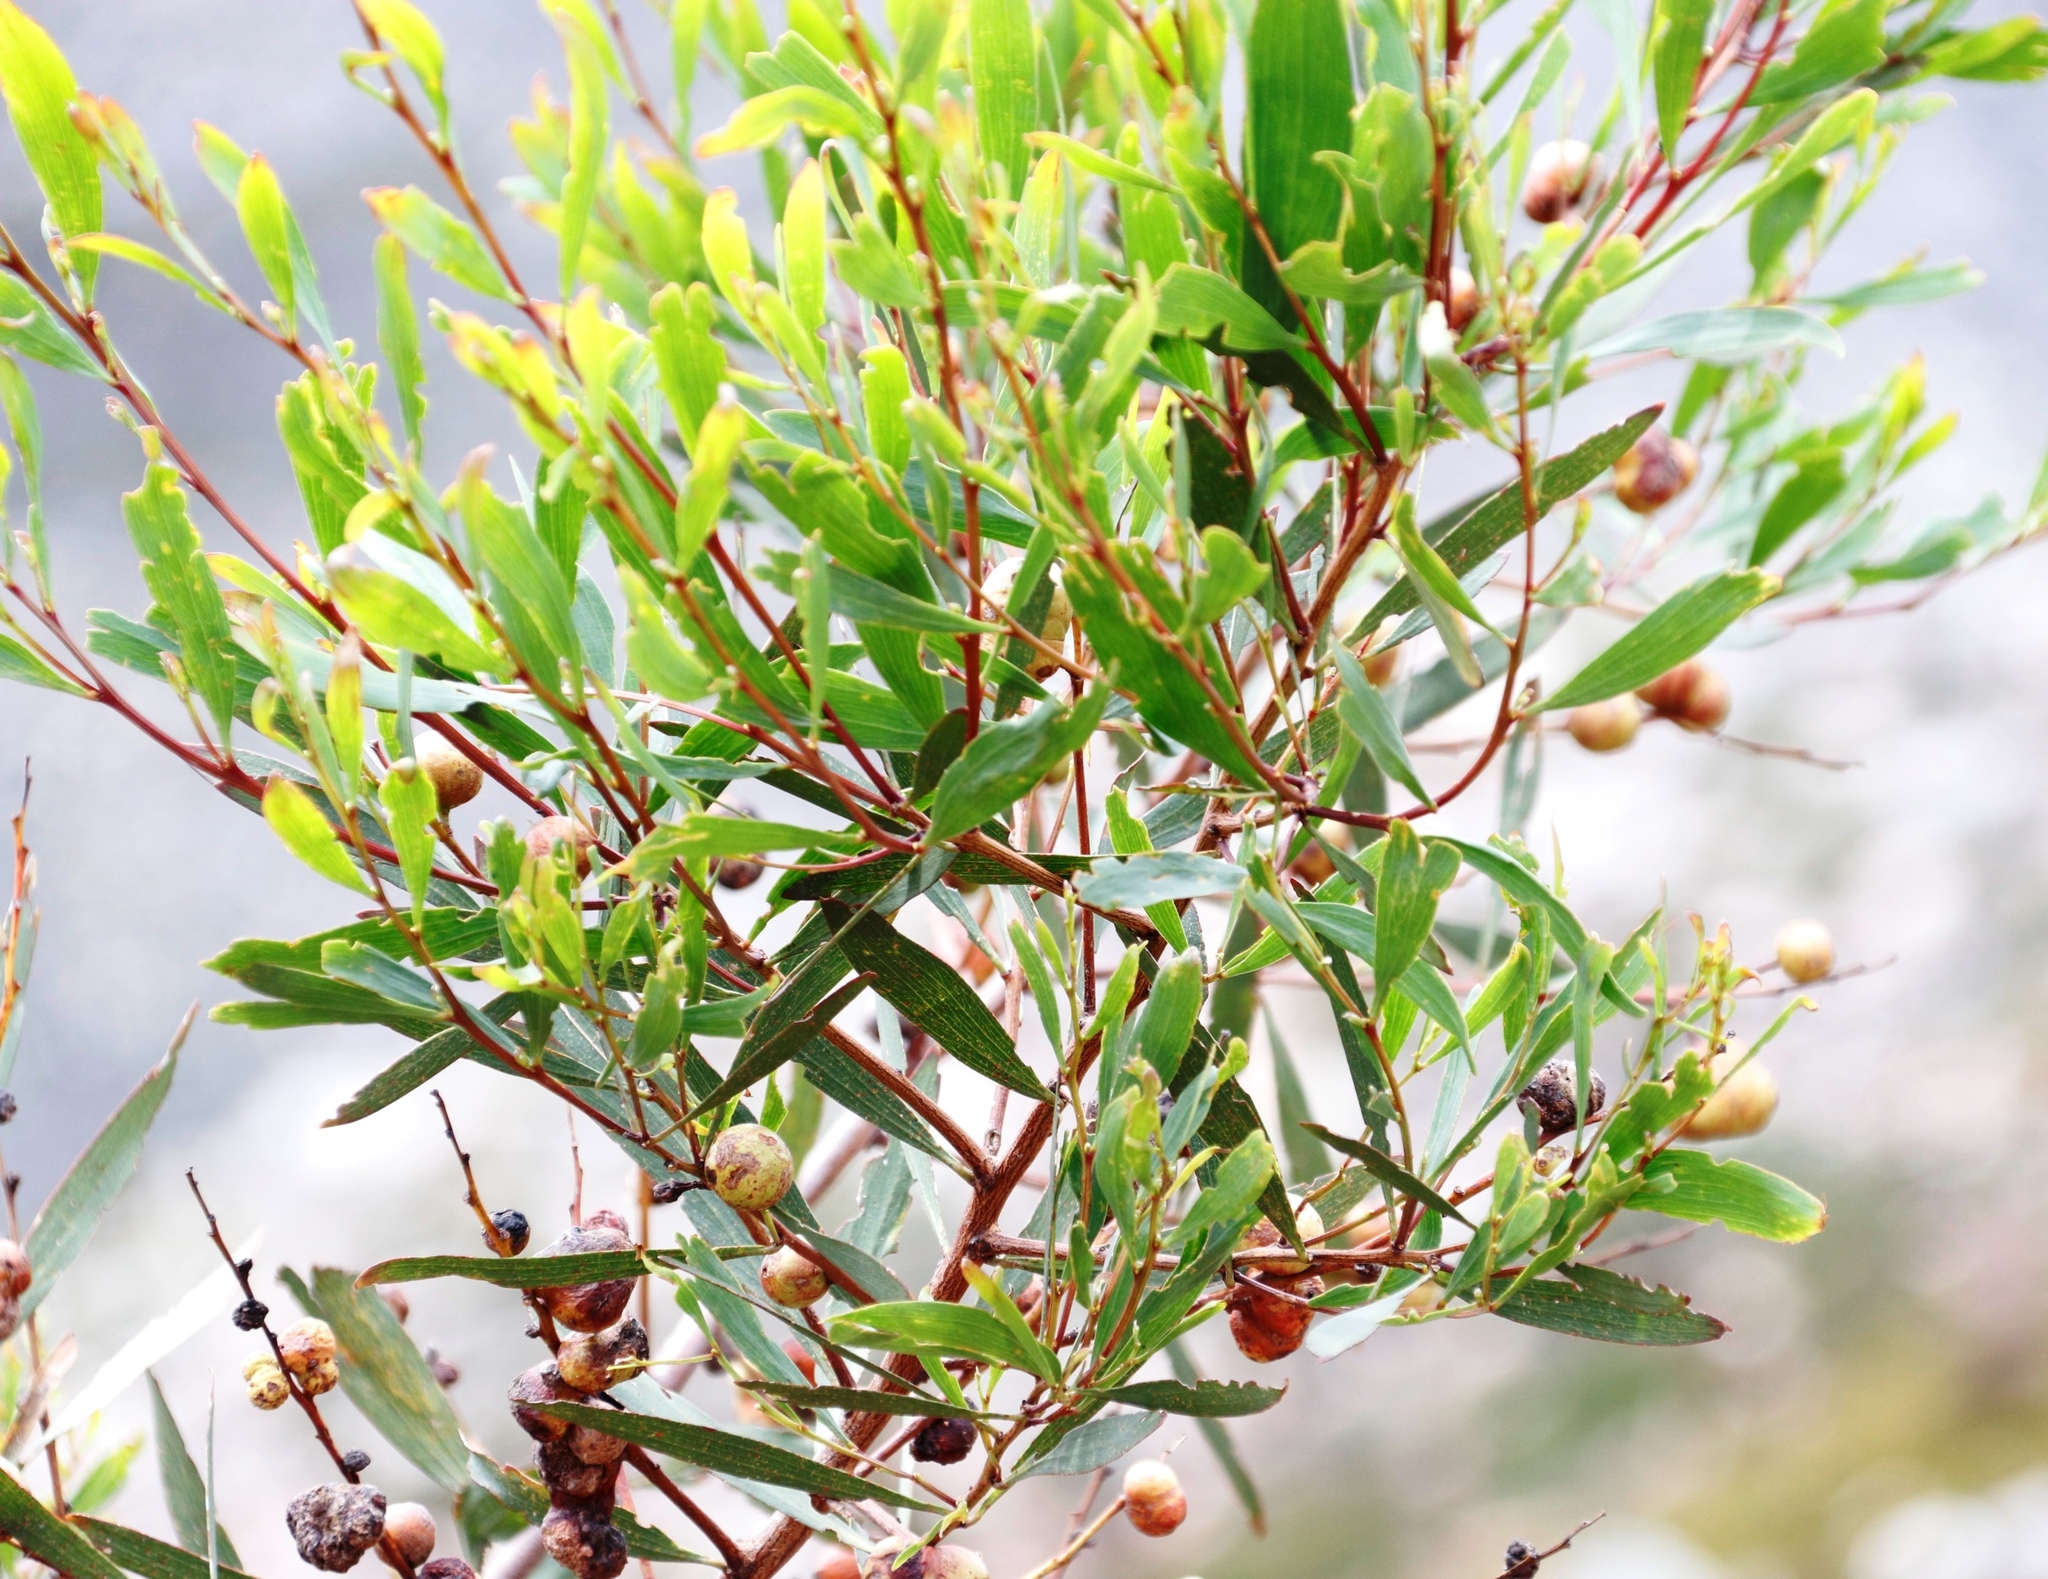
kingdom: Animalia
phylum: Arthropoda
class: Insecta
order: Hymenoptera
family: Pteromalidae
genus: Trichilogaster
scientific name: Trichilogaster acaciaelongifoliae
